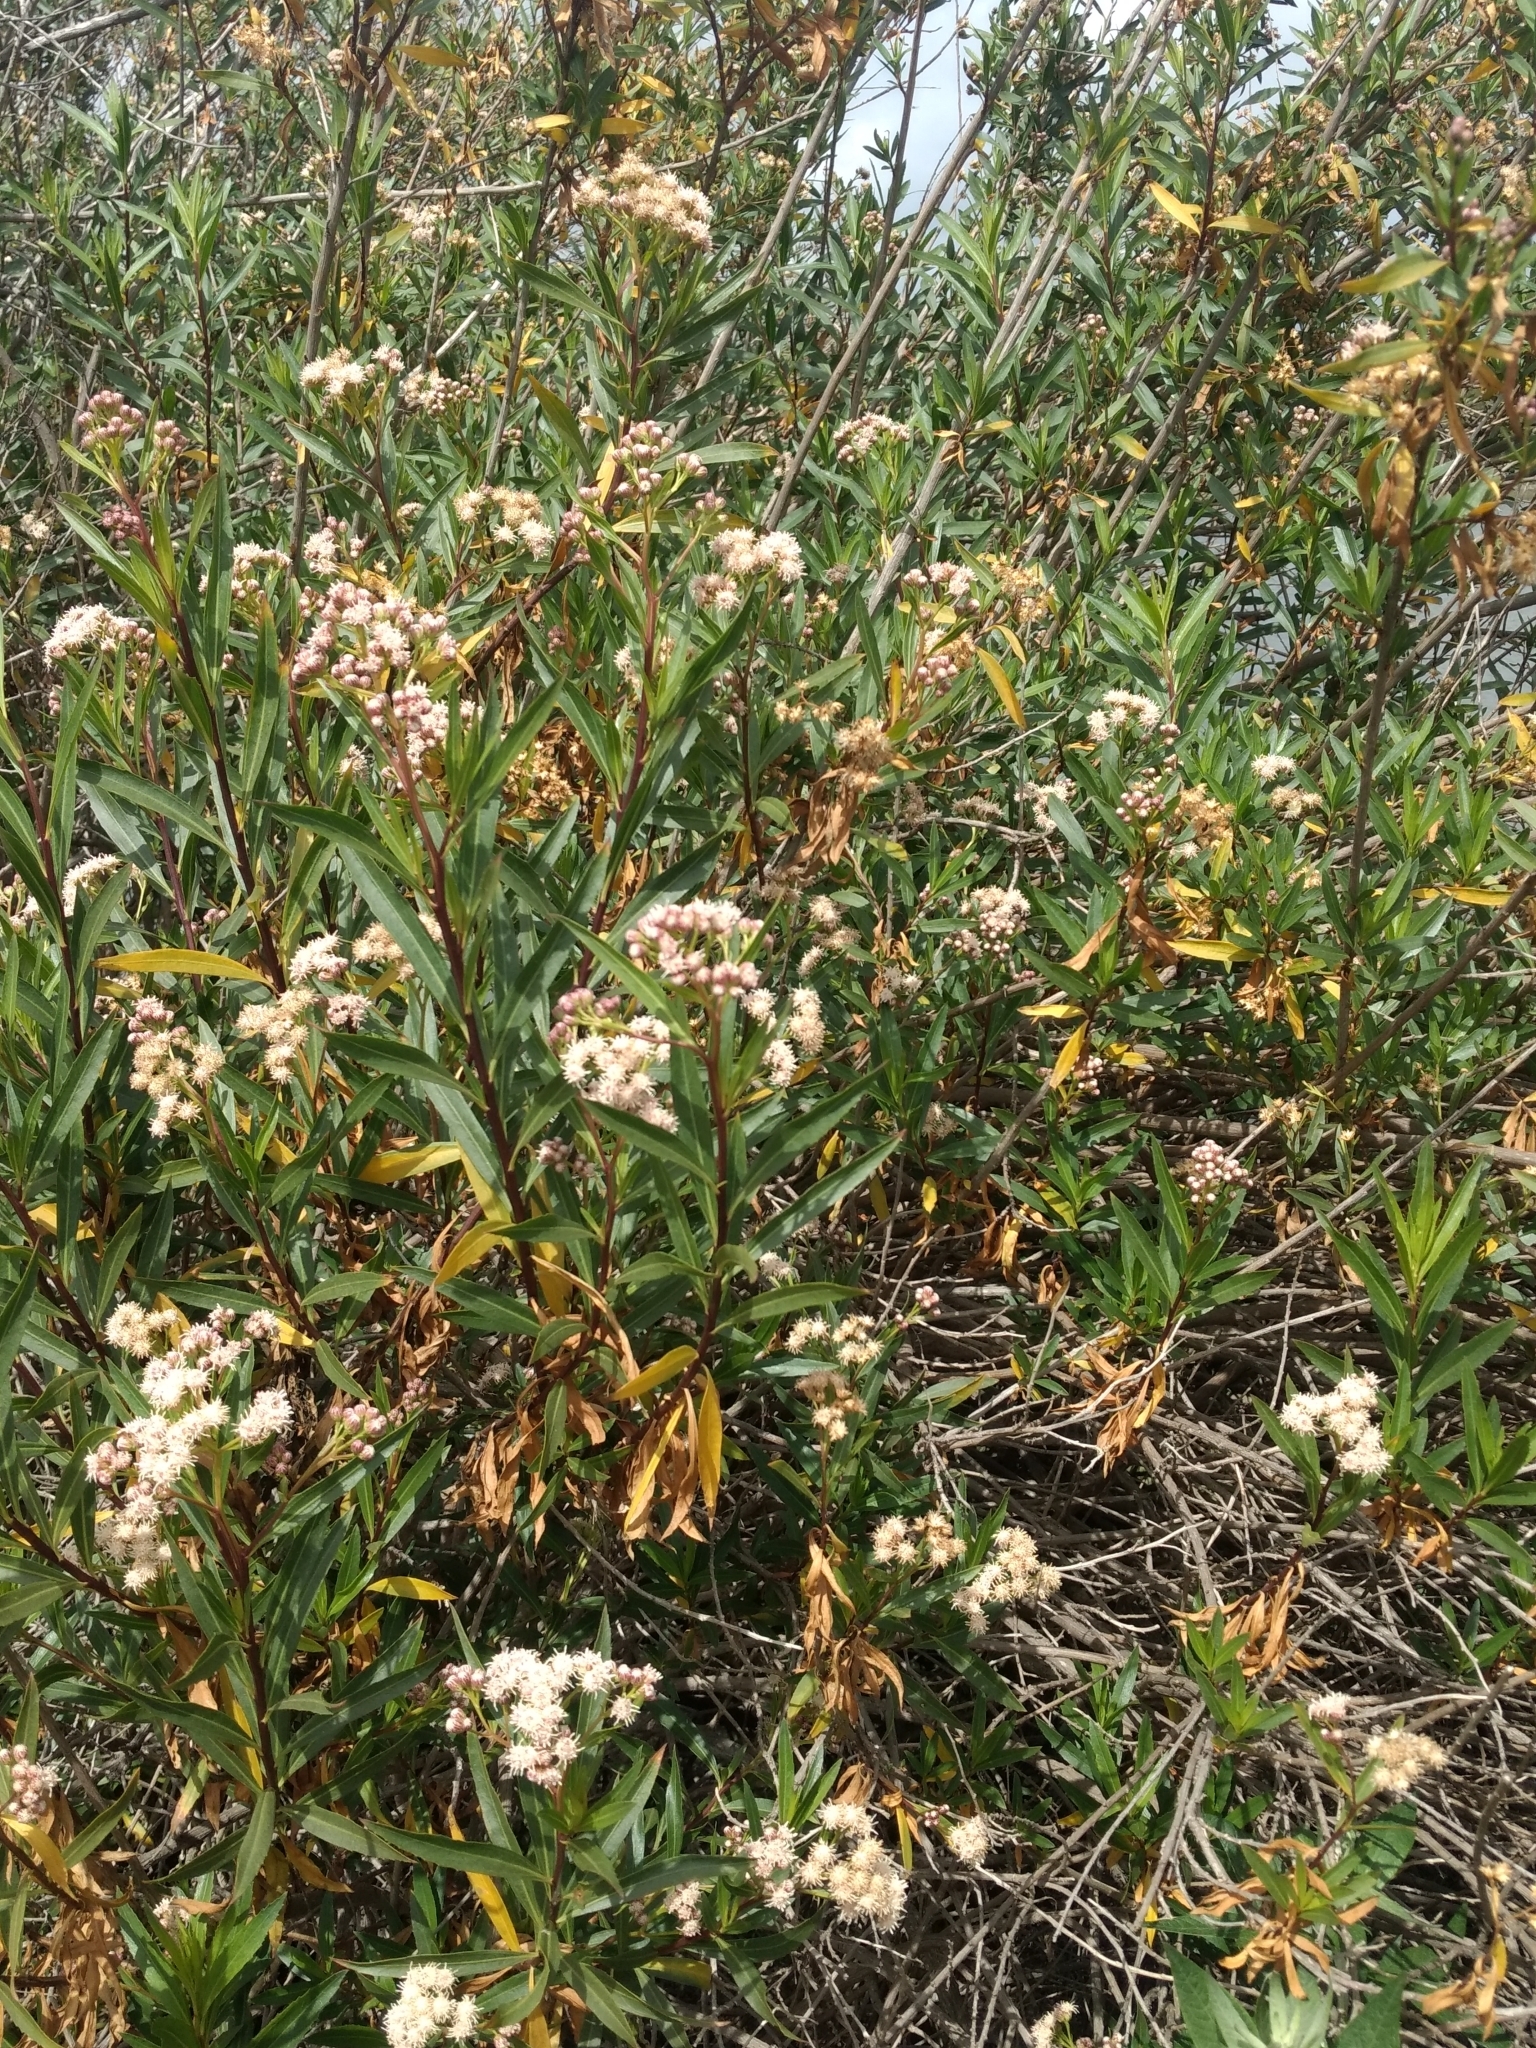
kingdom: Plantae
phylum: Tracheophyta
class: Magnoliopsida
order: Asterales
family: Asteraceae
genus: Baccharis
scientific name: Baccharis salicifolia
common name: Sticky baccharis
